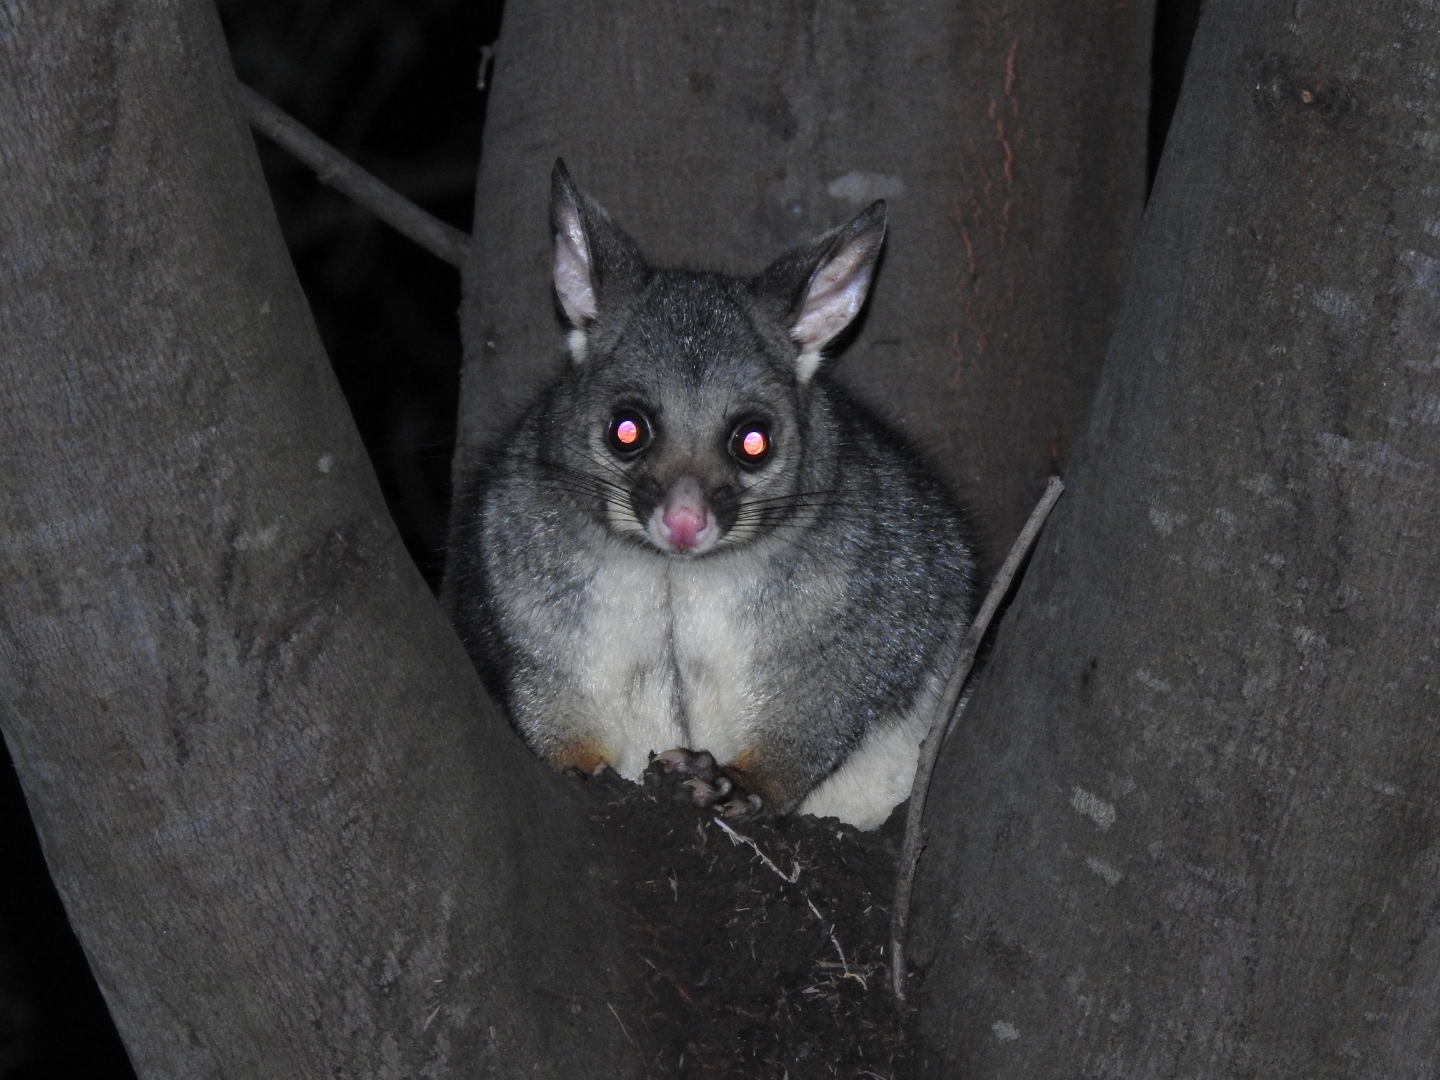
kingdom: Animalia
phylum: Chordata
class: Mammalia
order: Diprotodontia
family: Phalangeridae
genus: Trichosurus
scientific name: Trichosurus vulpecula
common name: Common brushtail
